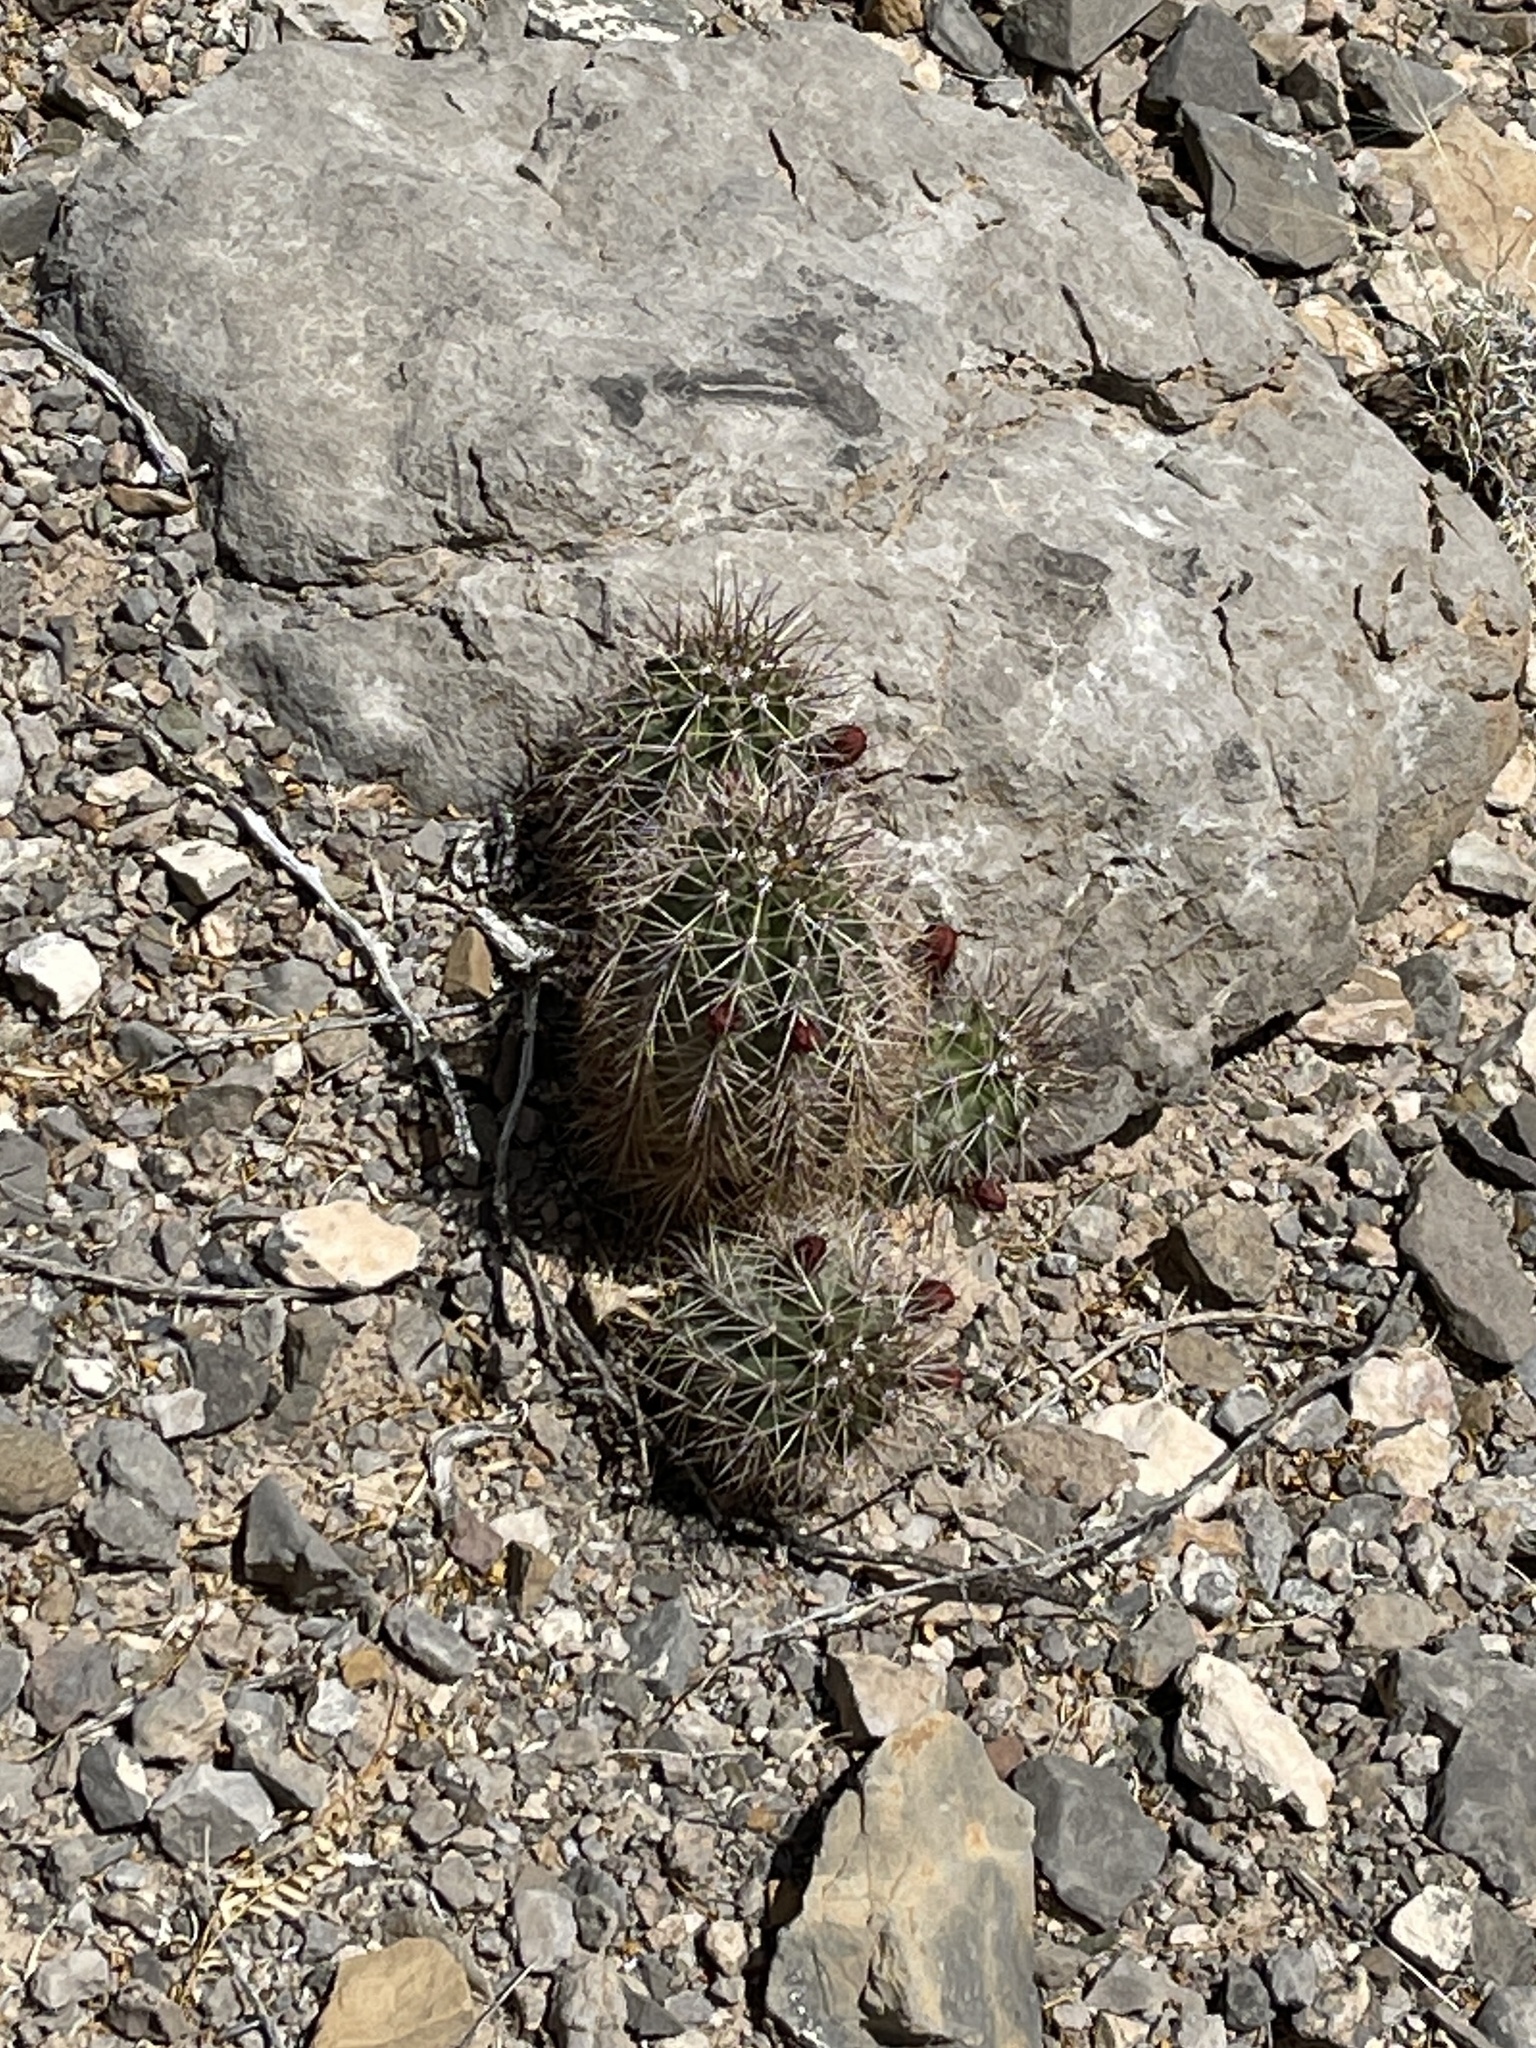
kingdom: Plantae
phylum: Tracheophyta
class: Magnoliopsida
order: Caryophyllales
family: Cactaceae
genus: Echinocereus
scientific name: Echinocereus coccineus
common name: Scarlet hedgehog cactus
